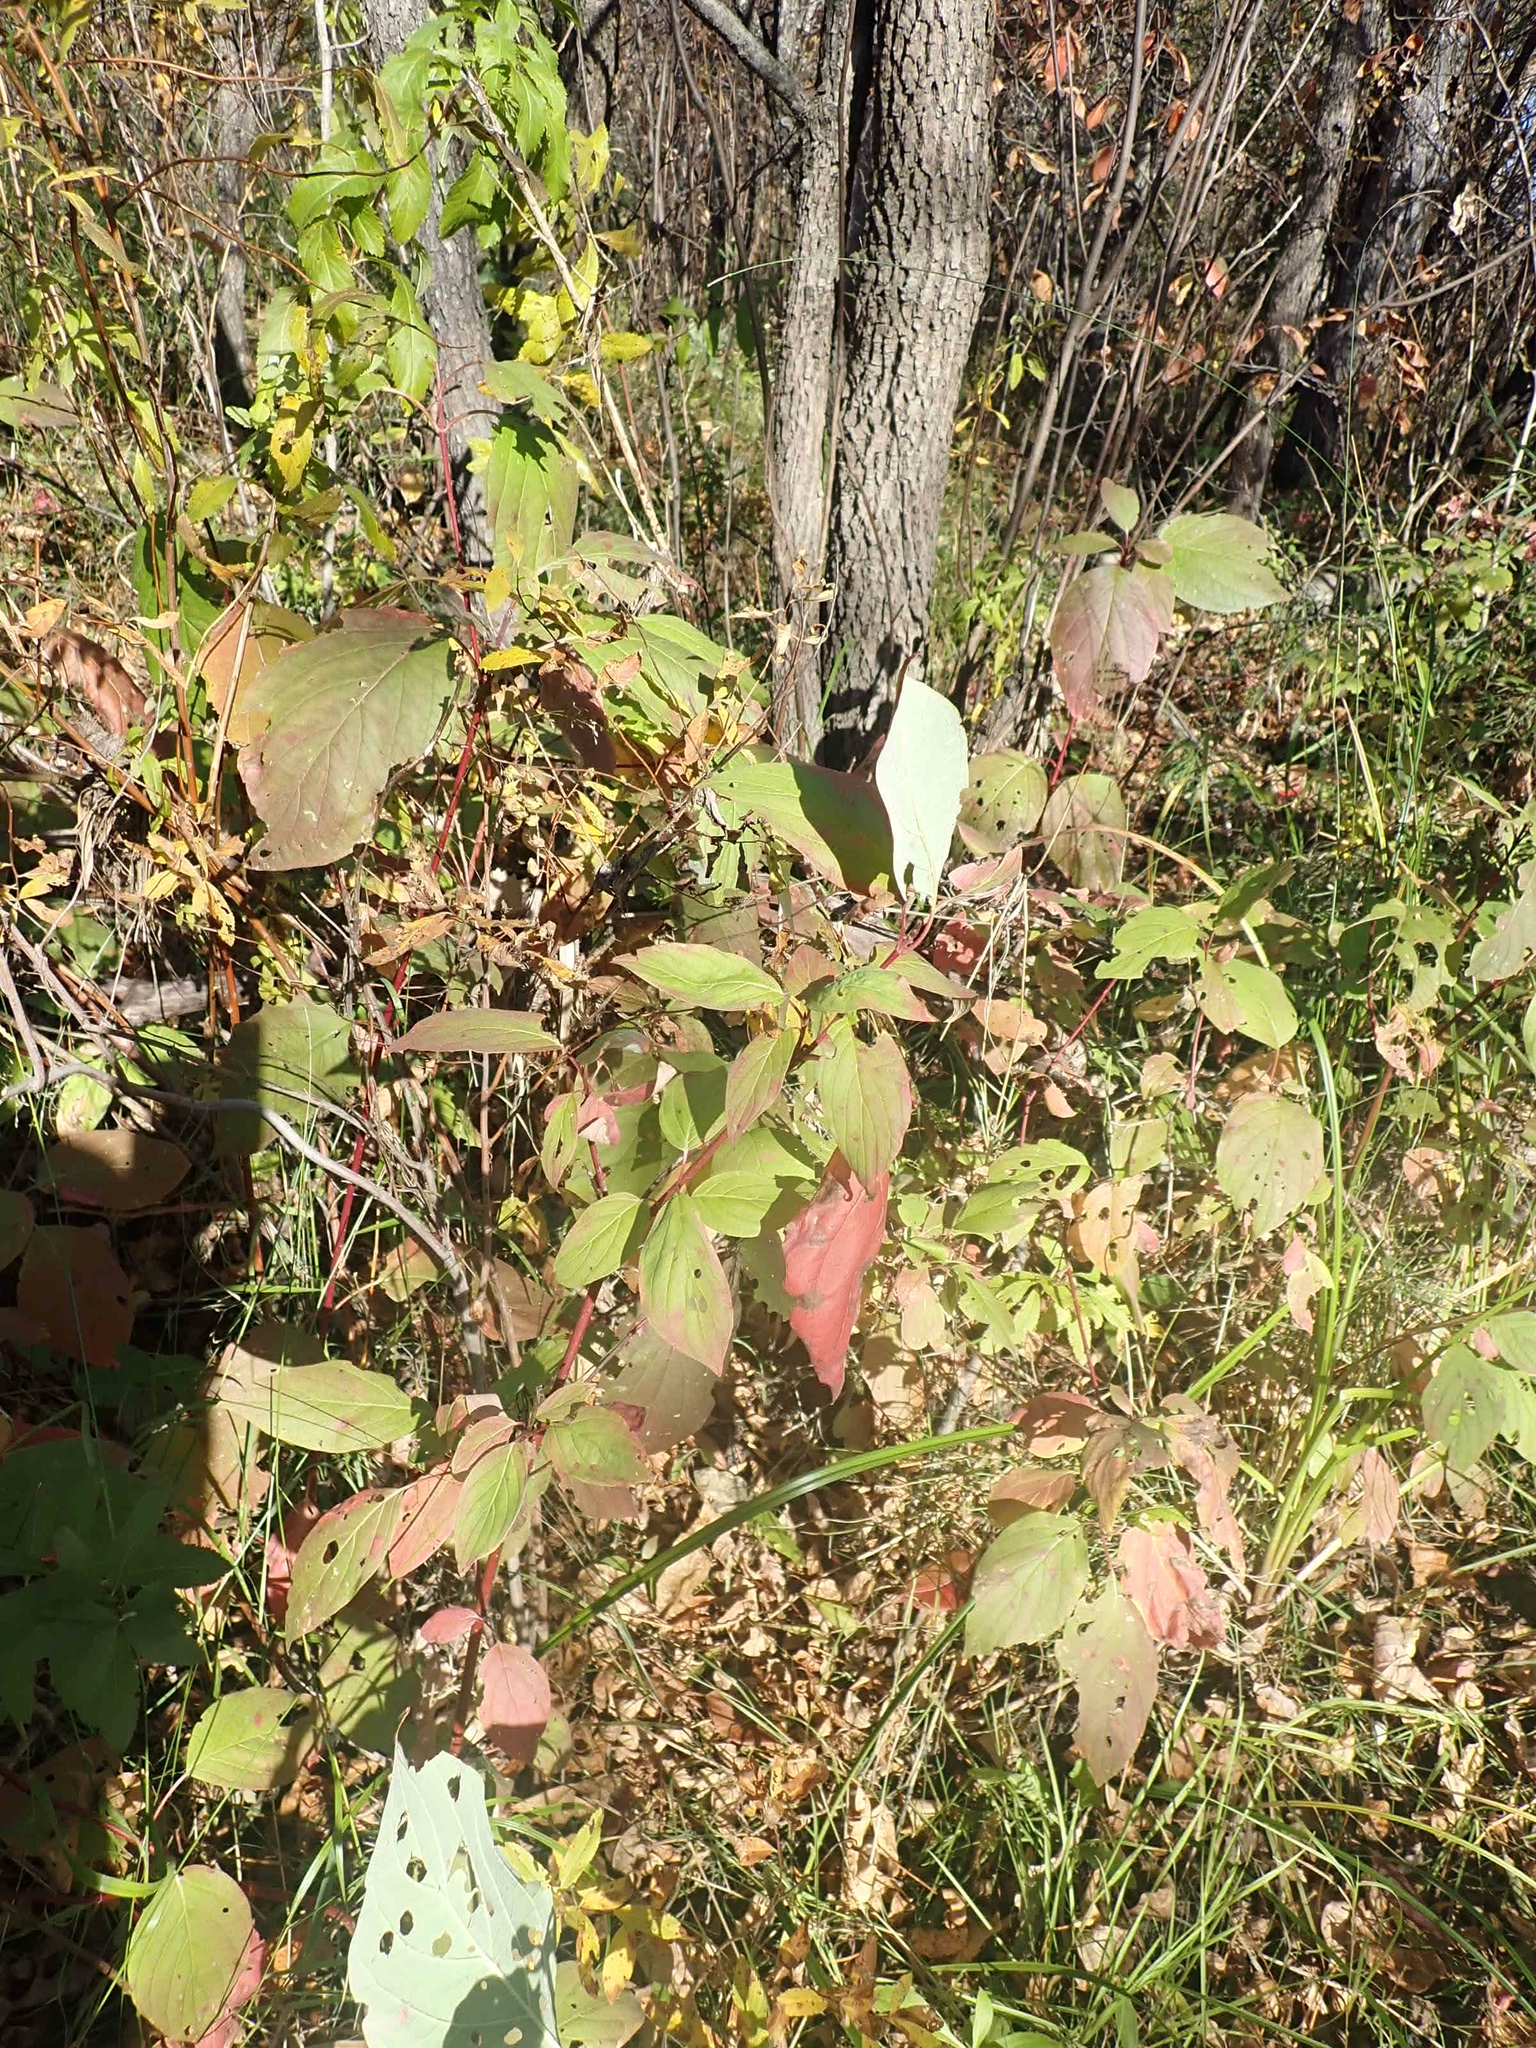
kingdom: Plantae
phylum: Tracheophyta
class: Magnoliopsida
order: Cornales
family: Cornaceae
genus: Cornus
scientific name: Cornus sericea
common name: Red-osier dogwood
